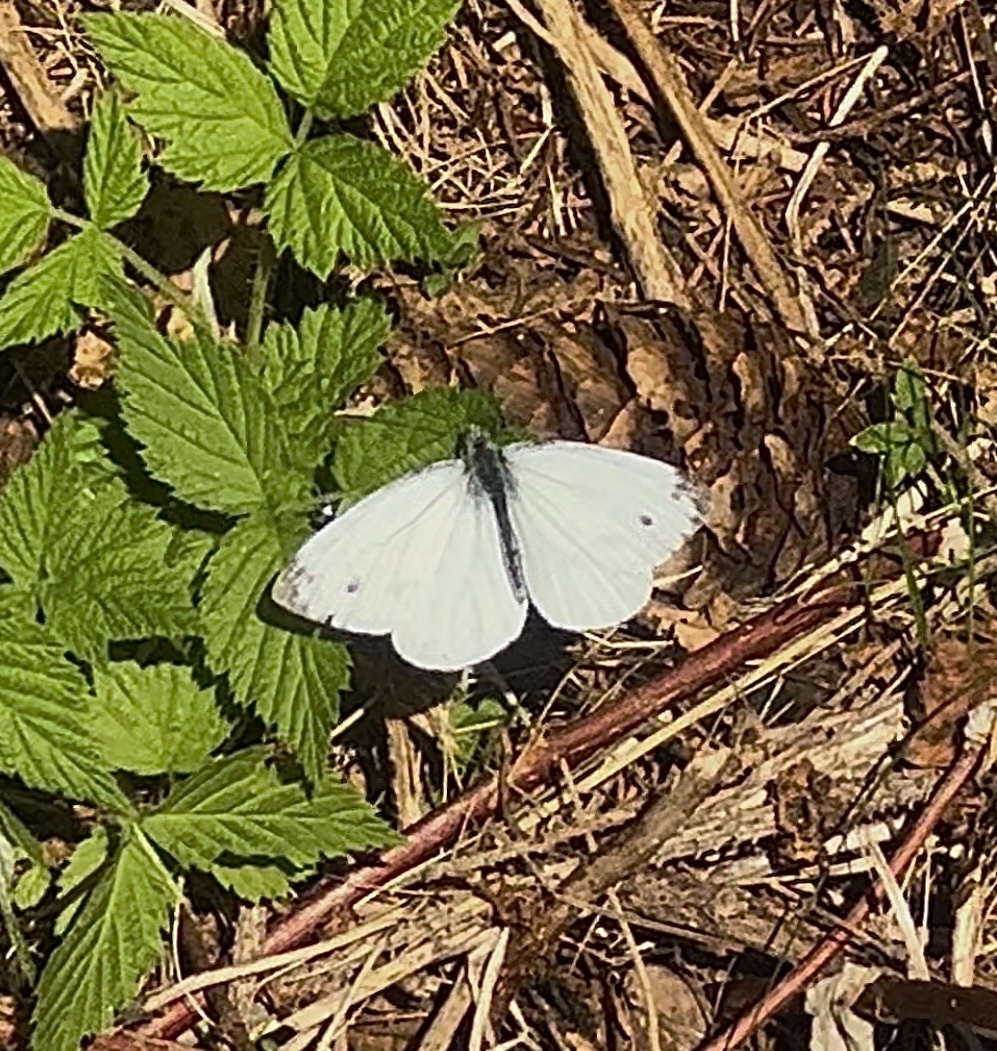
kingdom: Animalia
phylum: Arthropoda
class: Insecta
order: Lepidoptera
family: Pieridae
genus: Pieris
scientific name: Pieris rapae
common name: Small white
